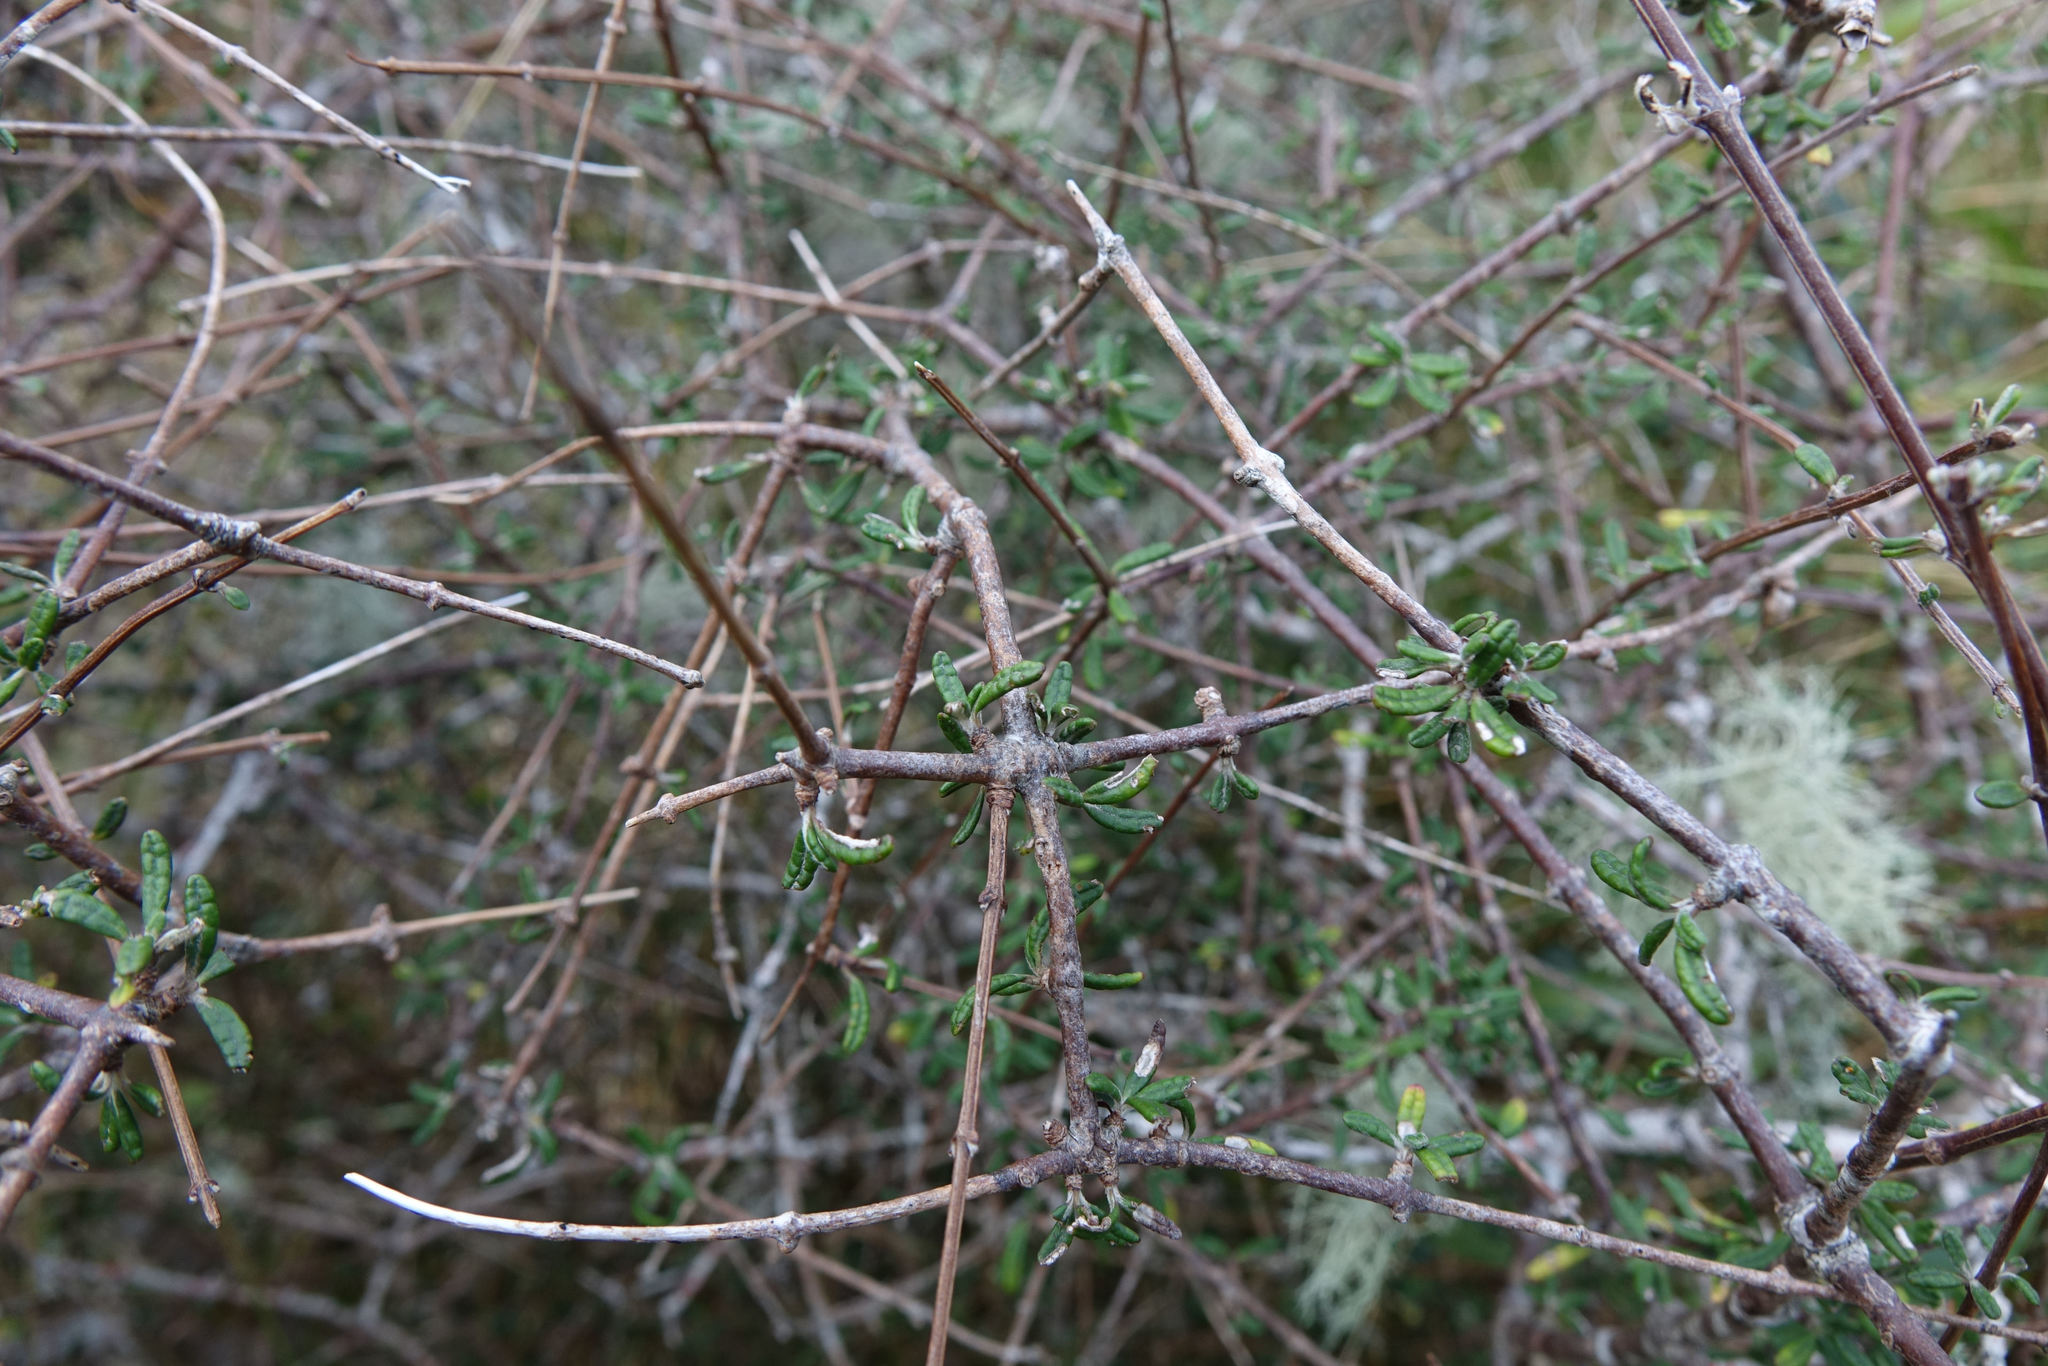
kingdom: Plantae
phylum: Tracheophyta
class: Magnoliopsida
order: Asterales
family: Asteraceae
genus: Olearia
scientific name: Olearia bullata
